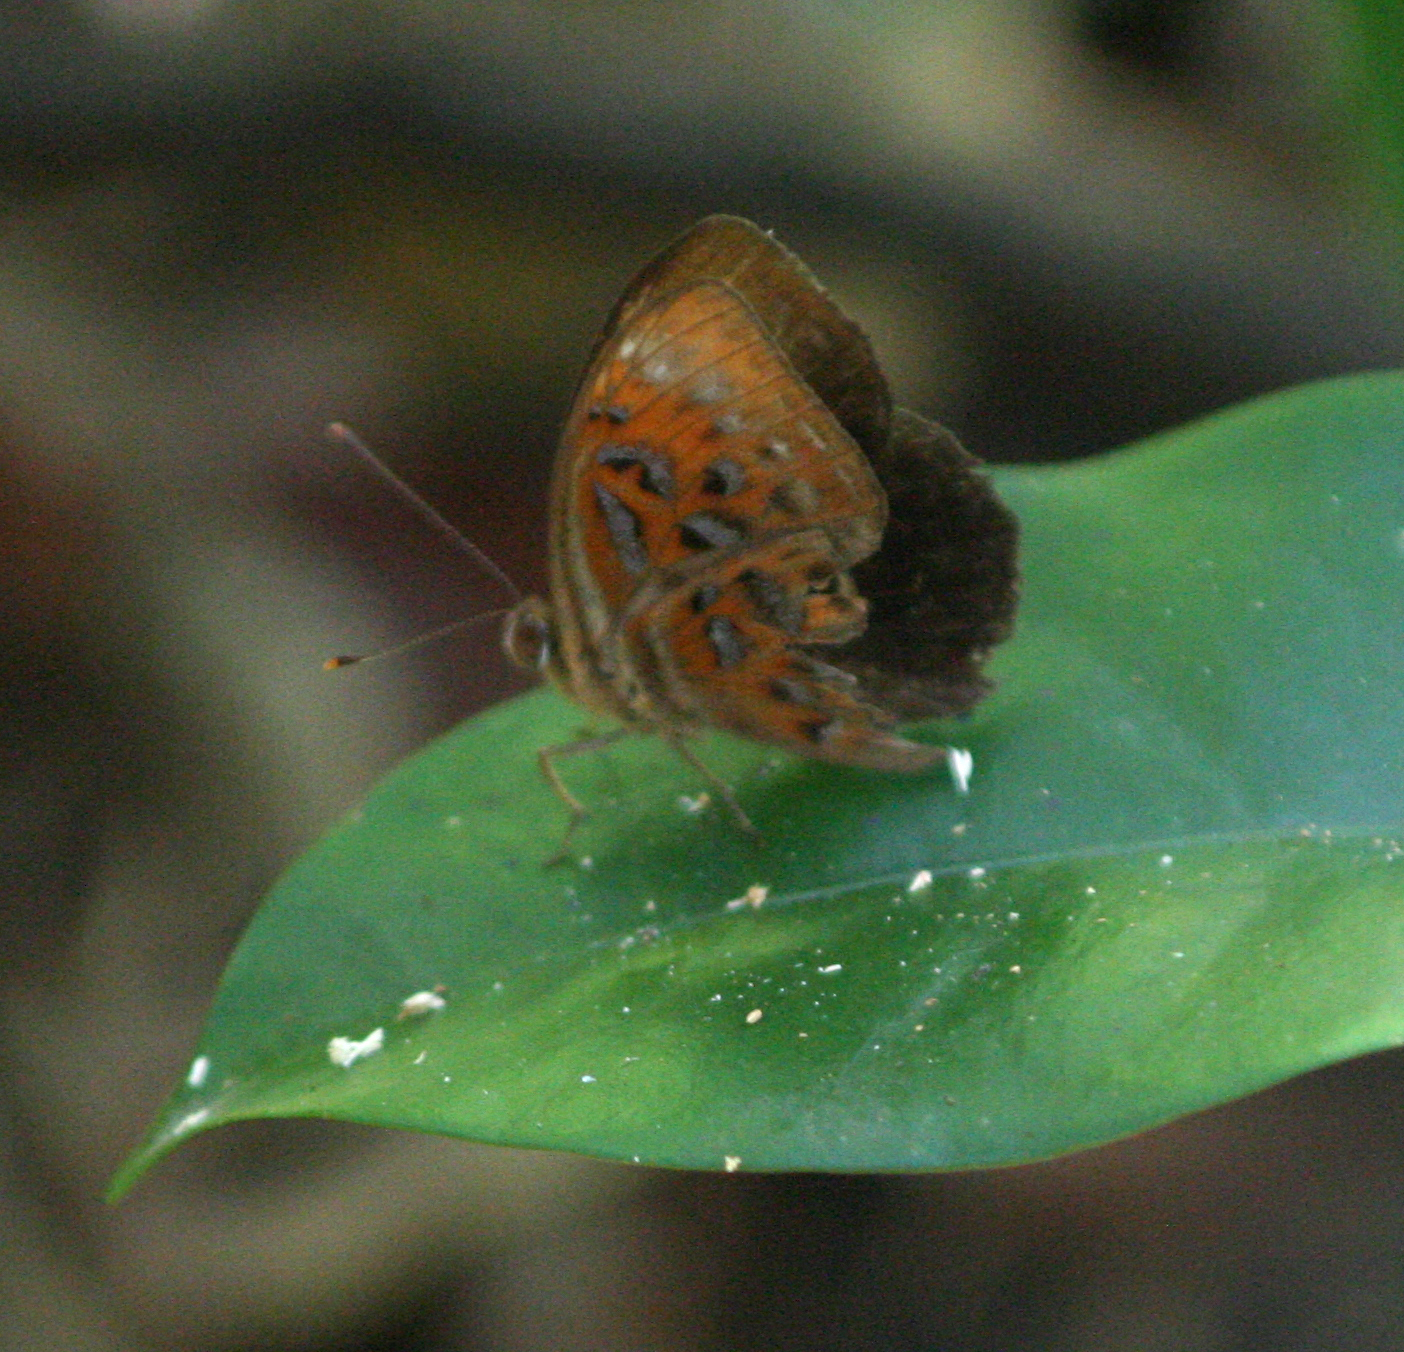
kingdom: Animalia
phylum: Arthropoda
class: Insecta
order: Lepidoptera
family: Erebidae
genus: Dysschema
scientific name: Dysschema
